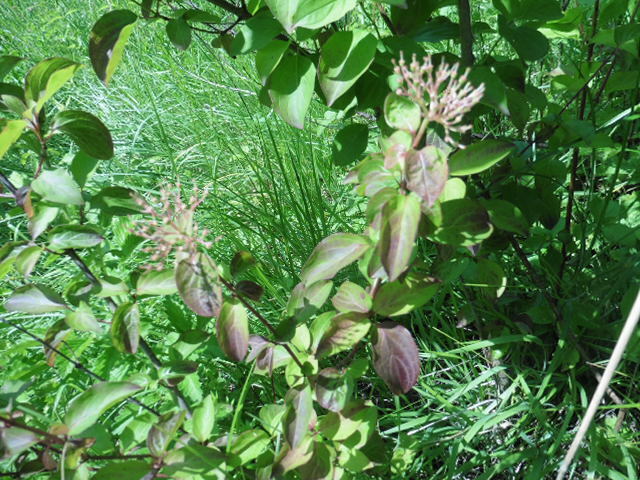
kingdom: Plantae
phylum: Tracheophyta
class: Magnoliopsida
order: Cornales
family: Cornaceae
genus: Cornus
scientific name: Cornus sanguinea
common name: Dogwood
